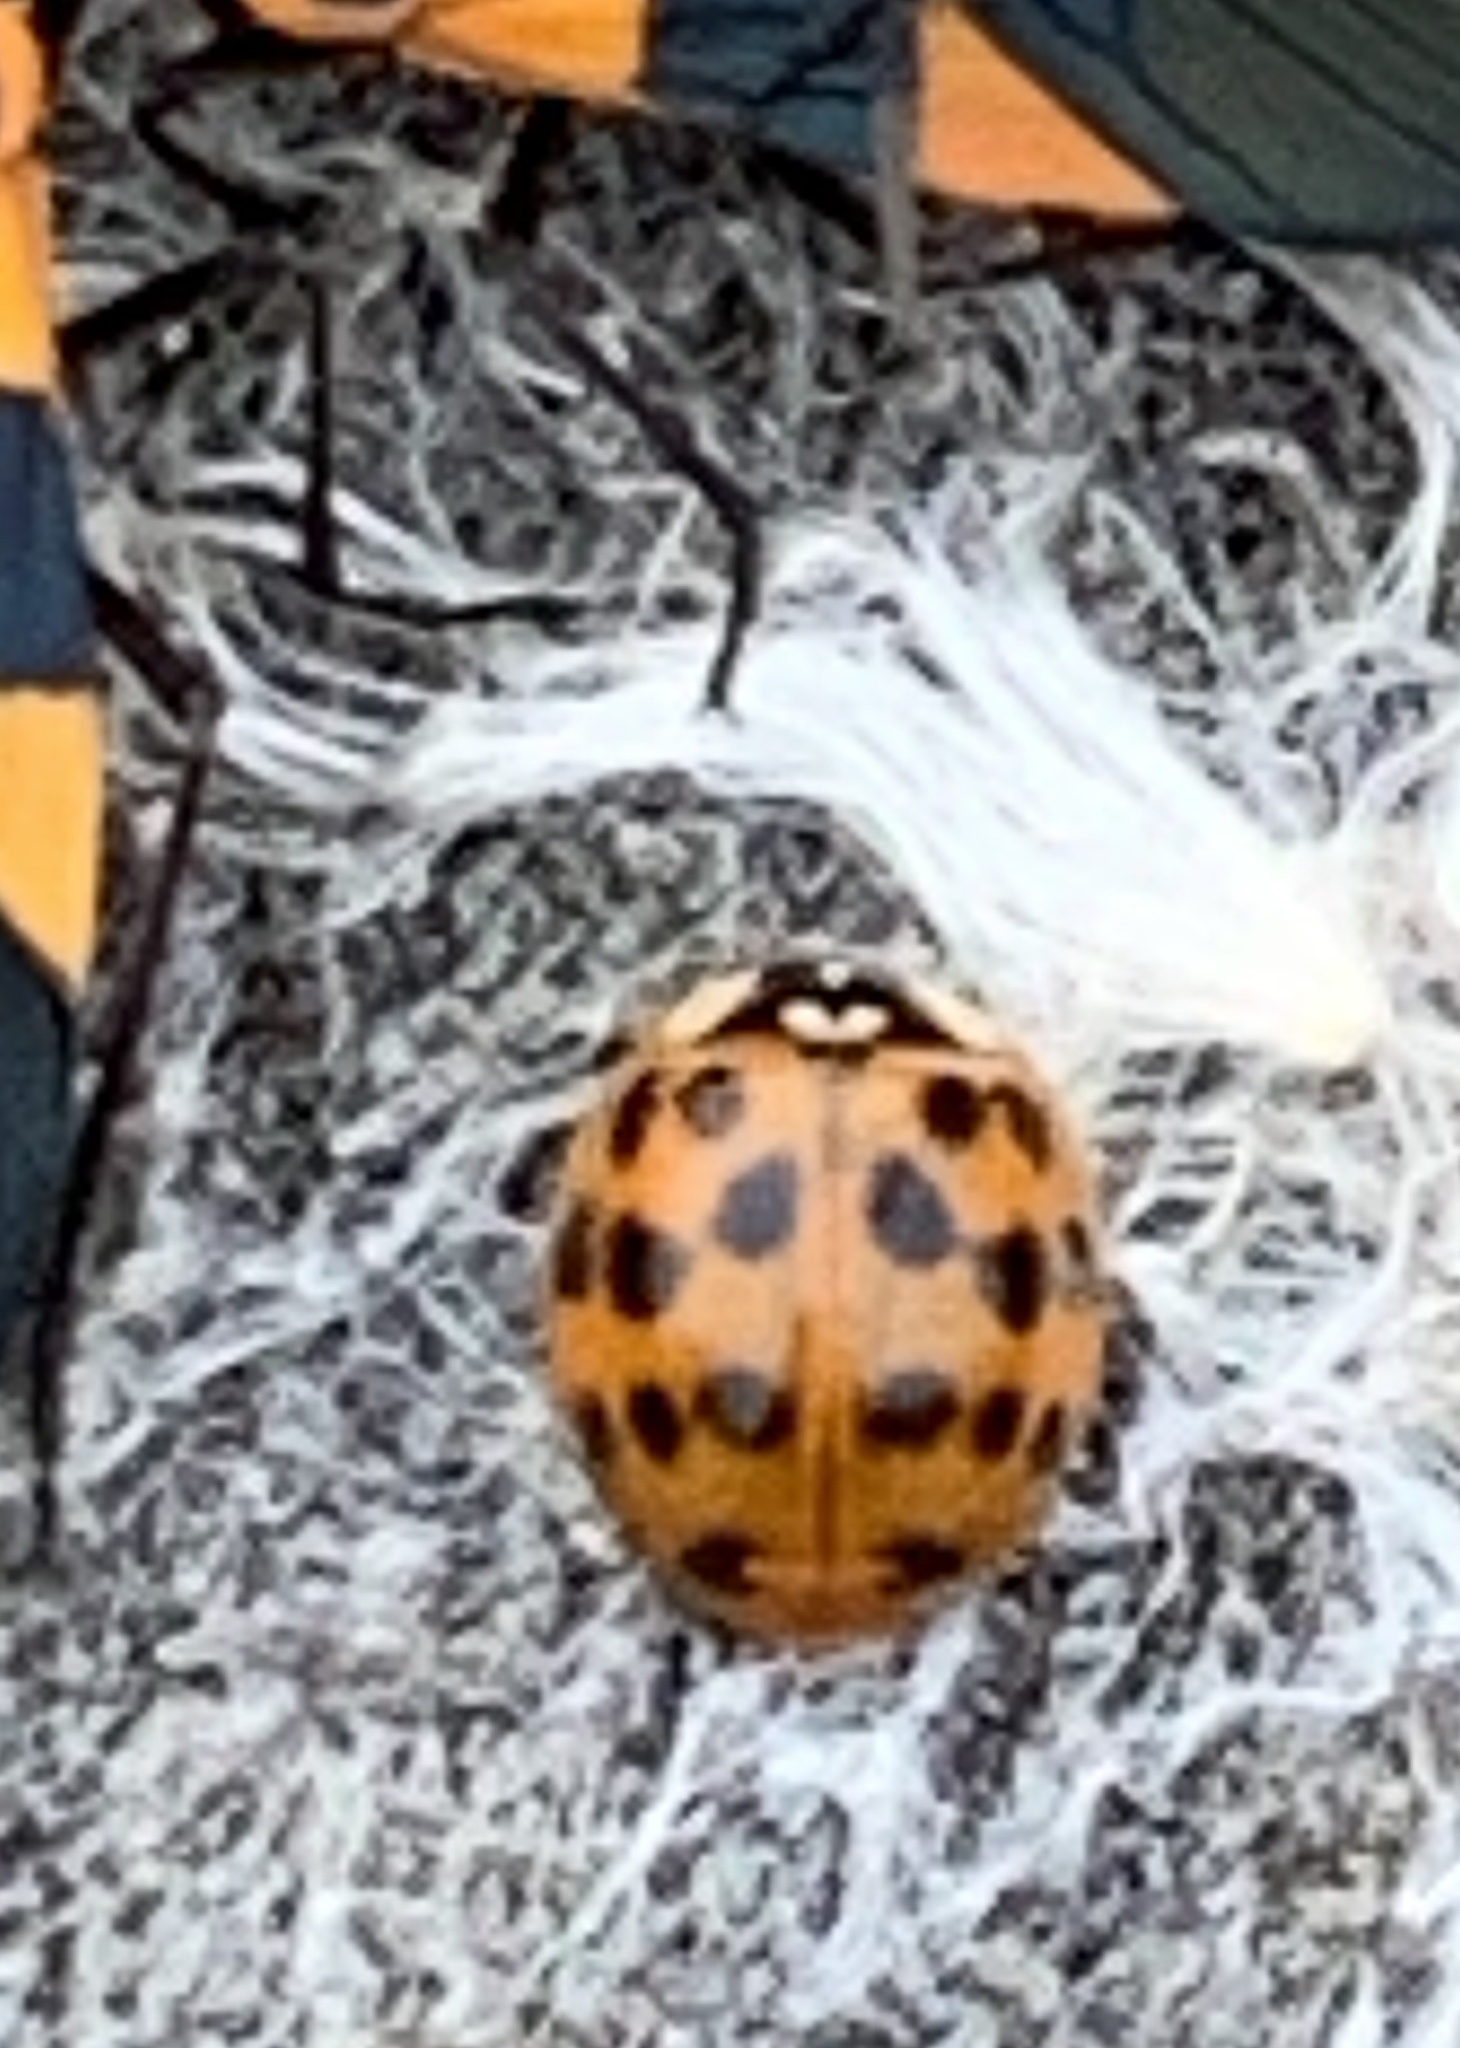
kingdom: Animalia
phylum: Arthropoda
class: Insecta
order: Coleoptera
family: Coccinellidae
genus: Harmonia
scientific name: Harmonia axyridis
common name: Harlequin ladybird
